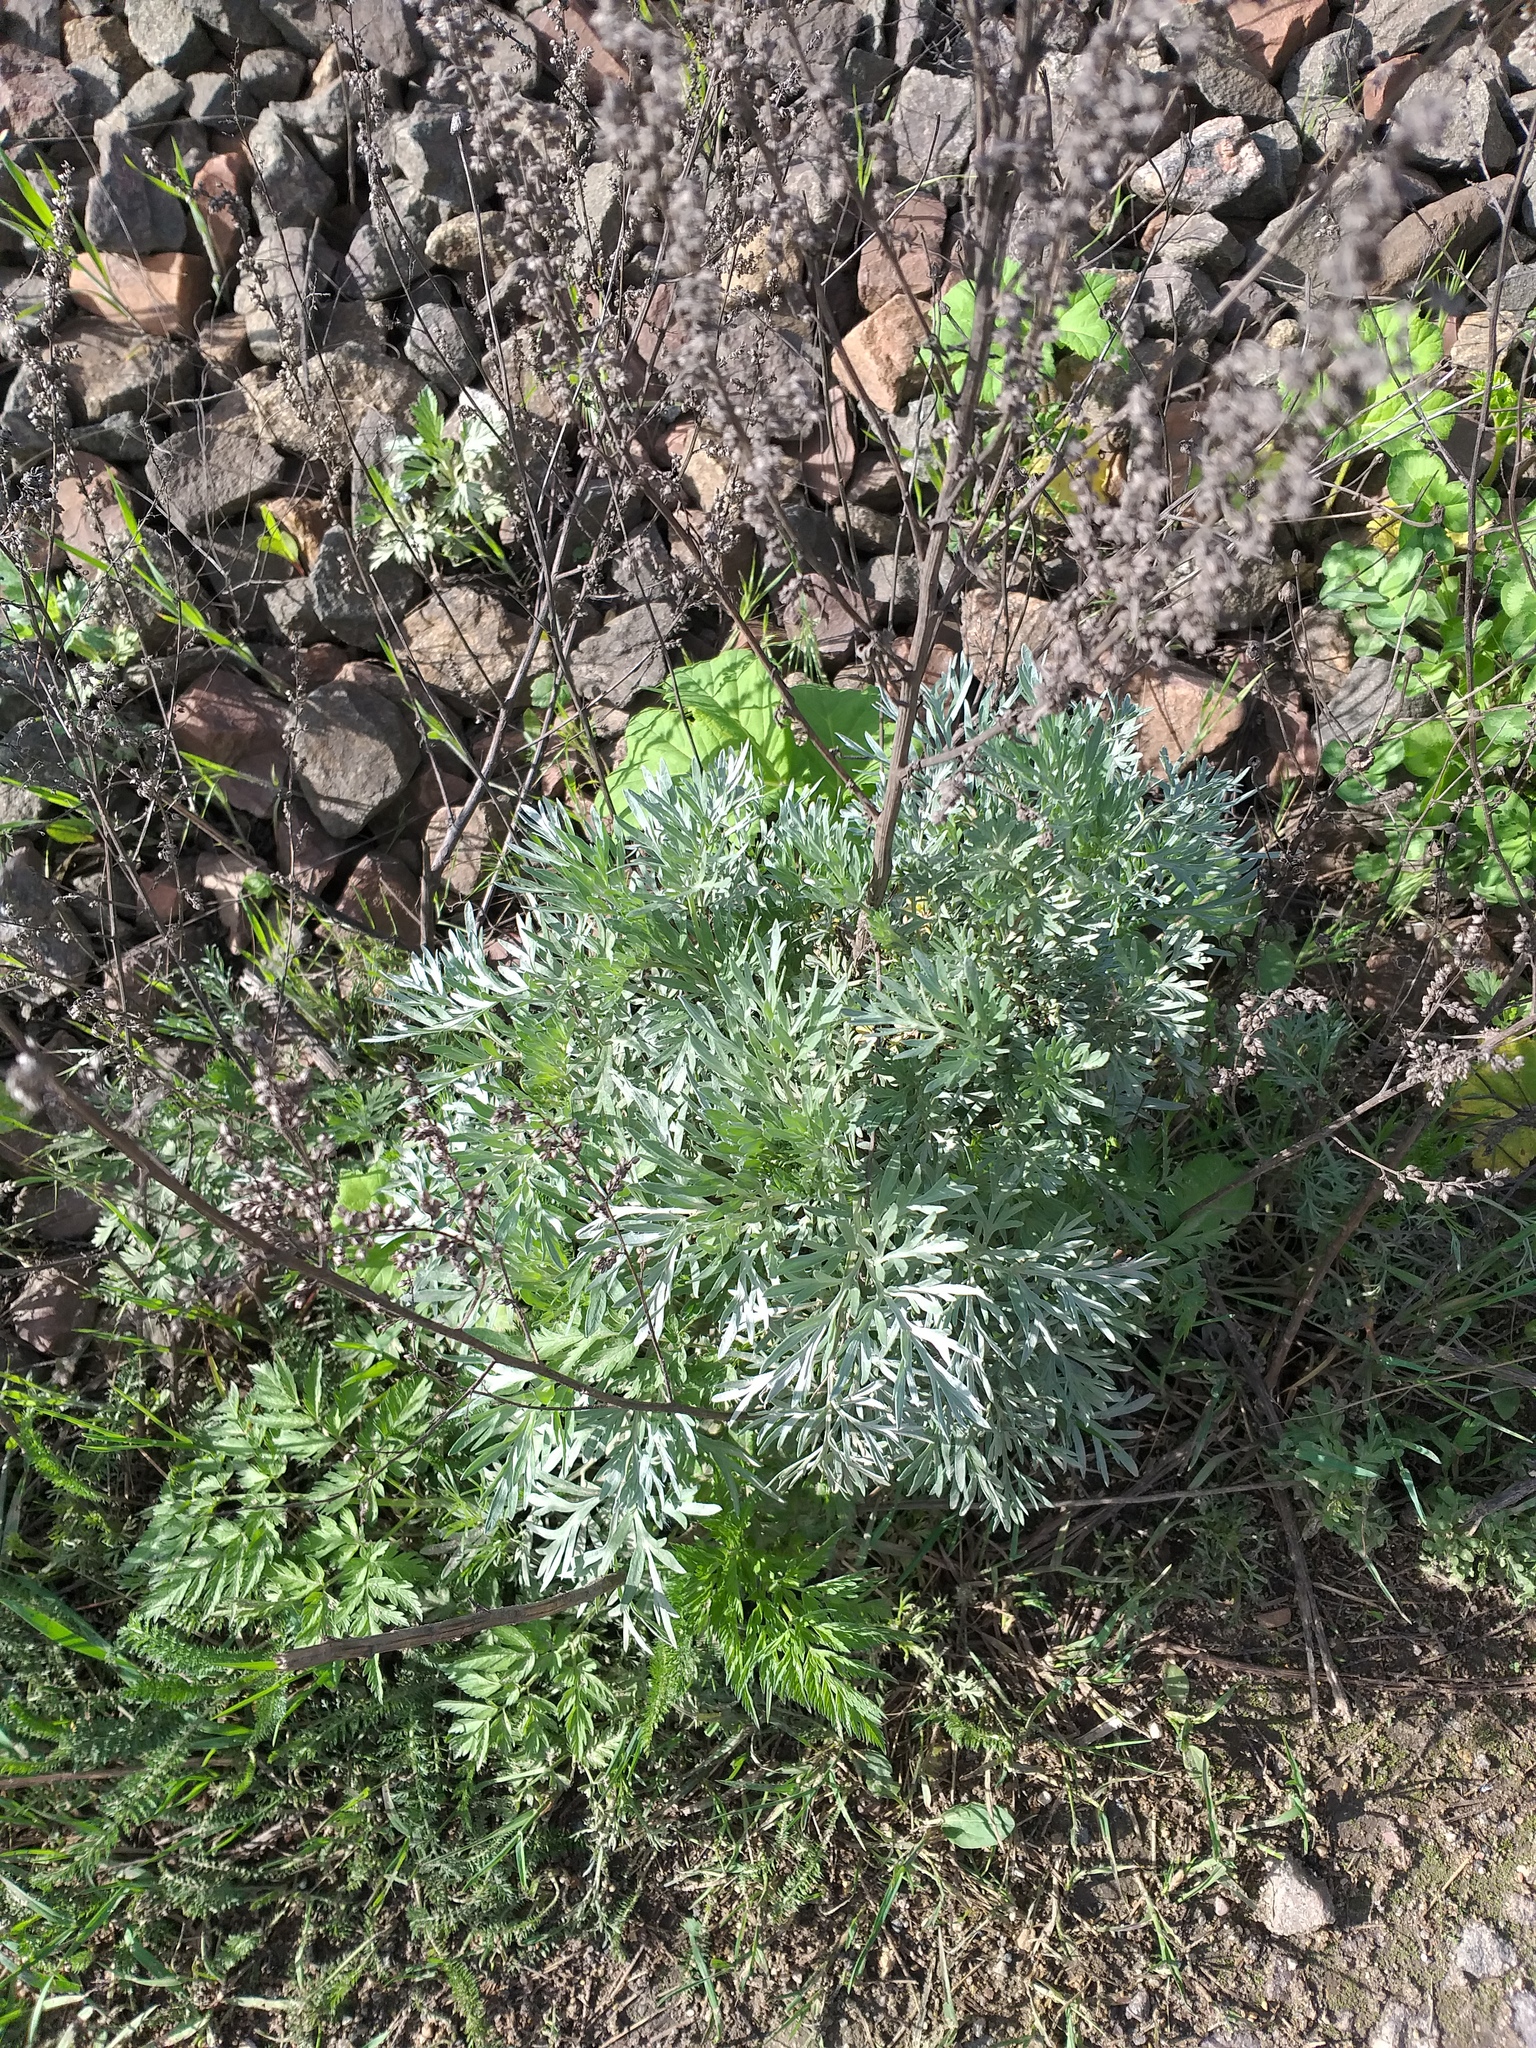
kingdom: Plantae
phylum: Tracheophyta
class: Magnoliopsida
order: Asterales
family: Asteraceae
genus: Artemisia
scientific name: Artemisia absinthium
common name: Wormwood
